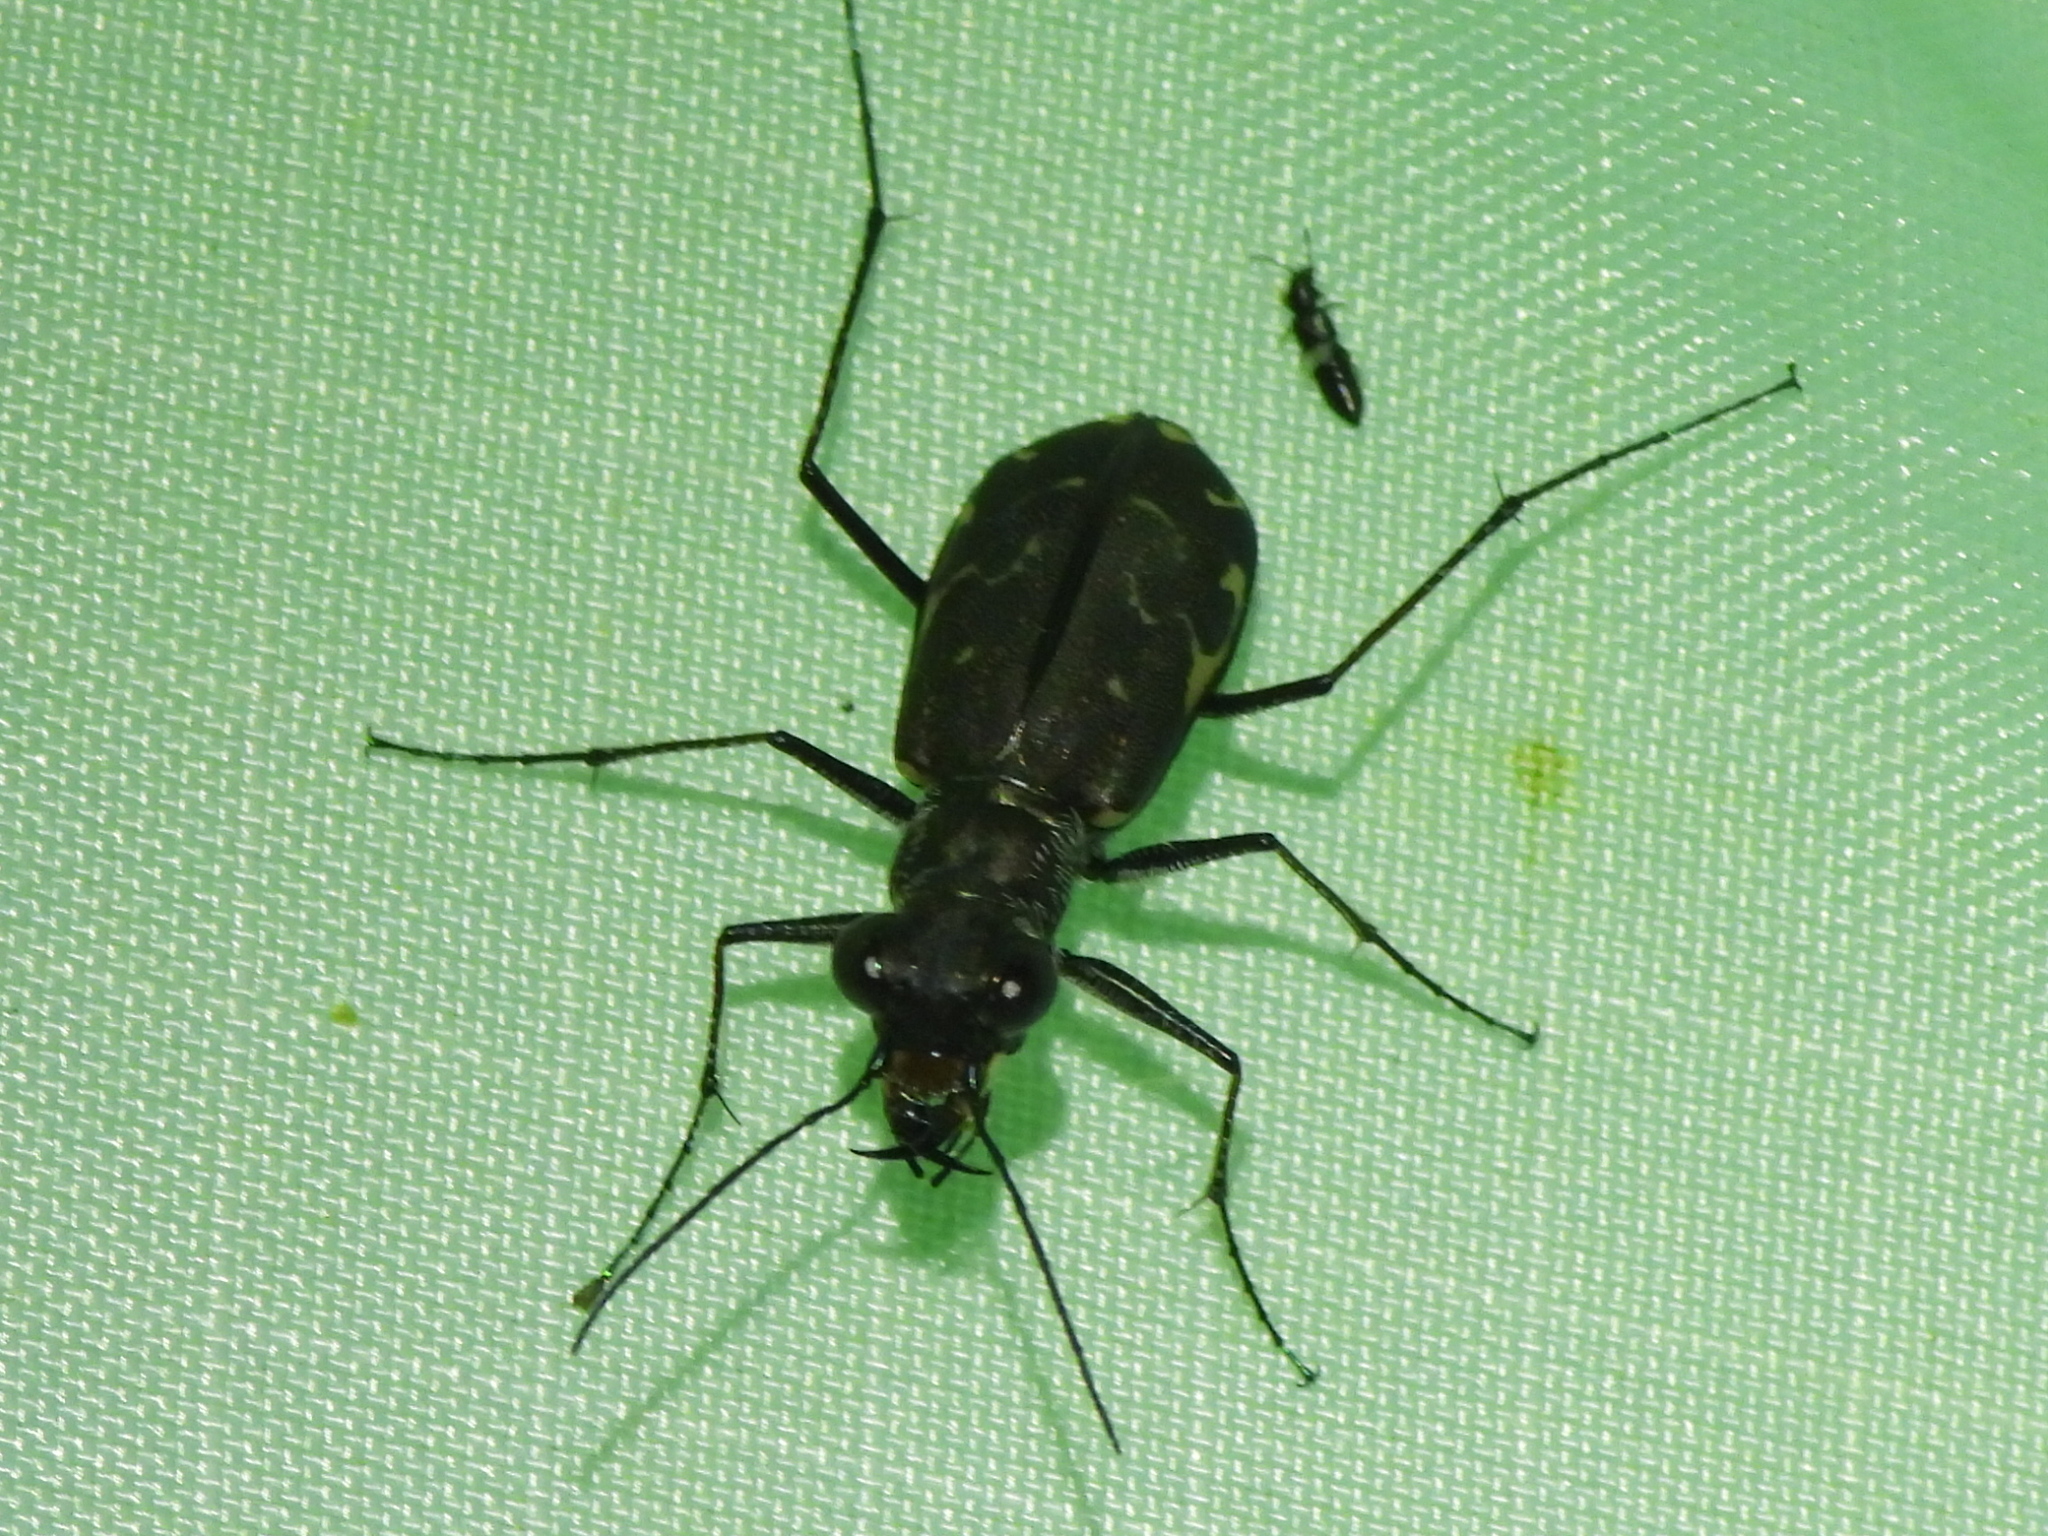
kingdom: Animalia
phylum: Arthropoda
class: Insecta
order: Coleoptera
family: Carabidae
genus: Cicindela
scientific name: Cicindela trifasciata
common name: Mudflat tiger beetle
